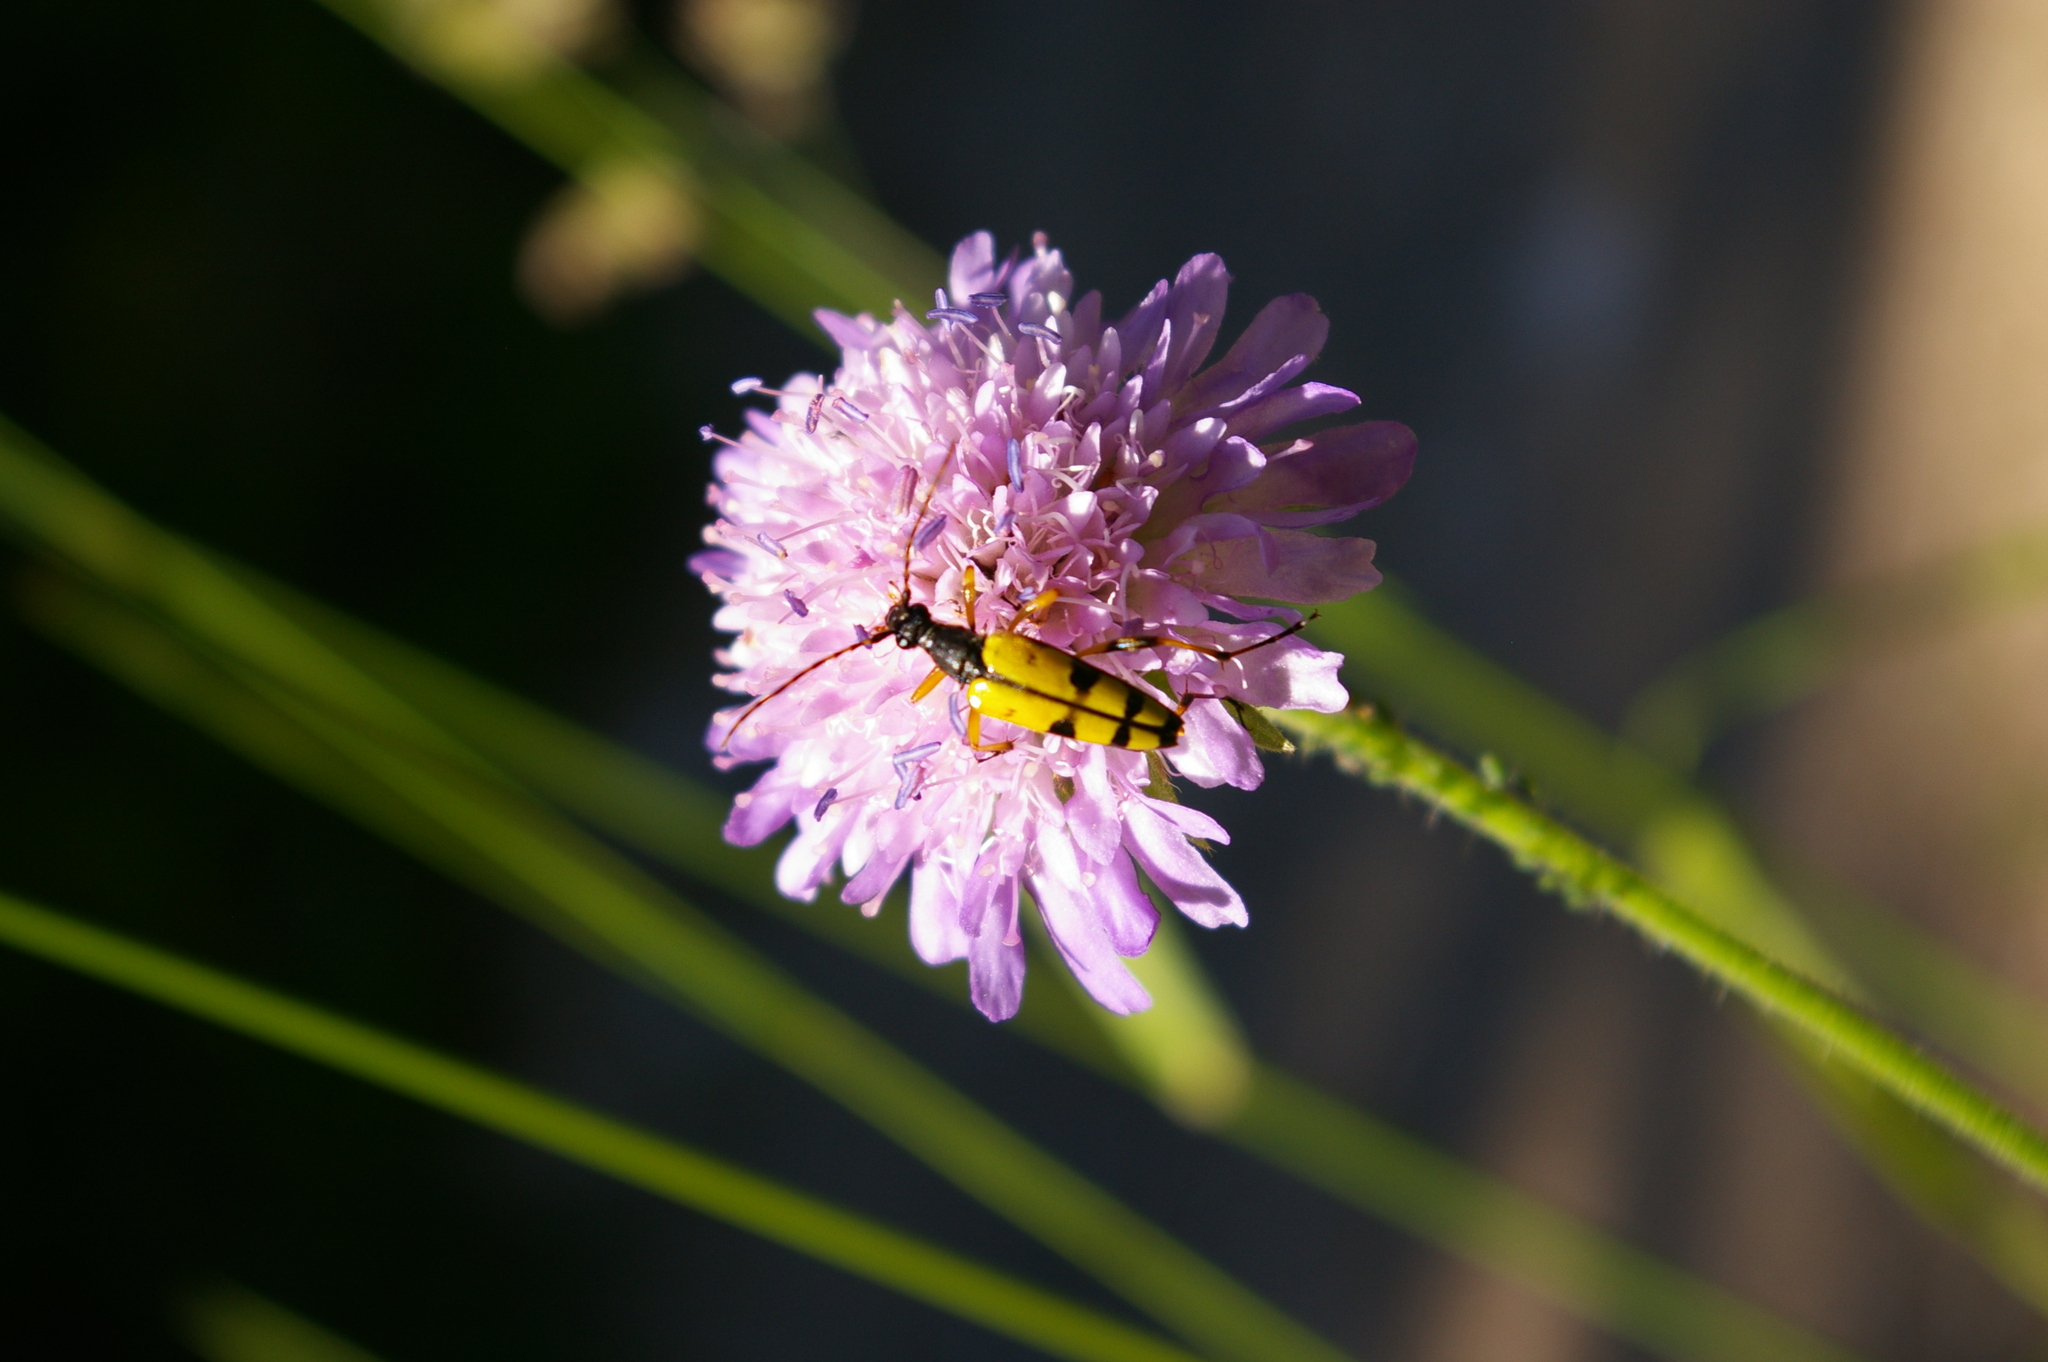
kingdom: Animalia
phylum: Arthropoda
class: Insecta
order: Coleoptera
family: Cerambycidae
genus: Rutpela
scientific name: Rutpela maculata
